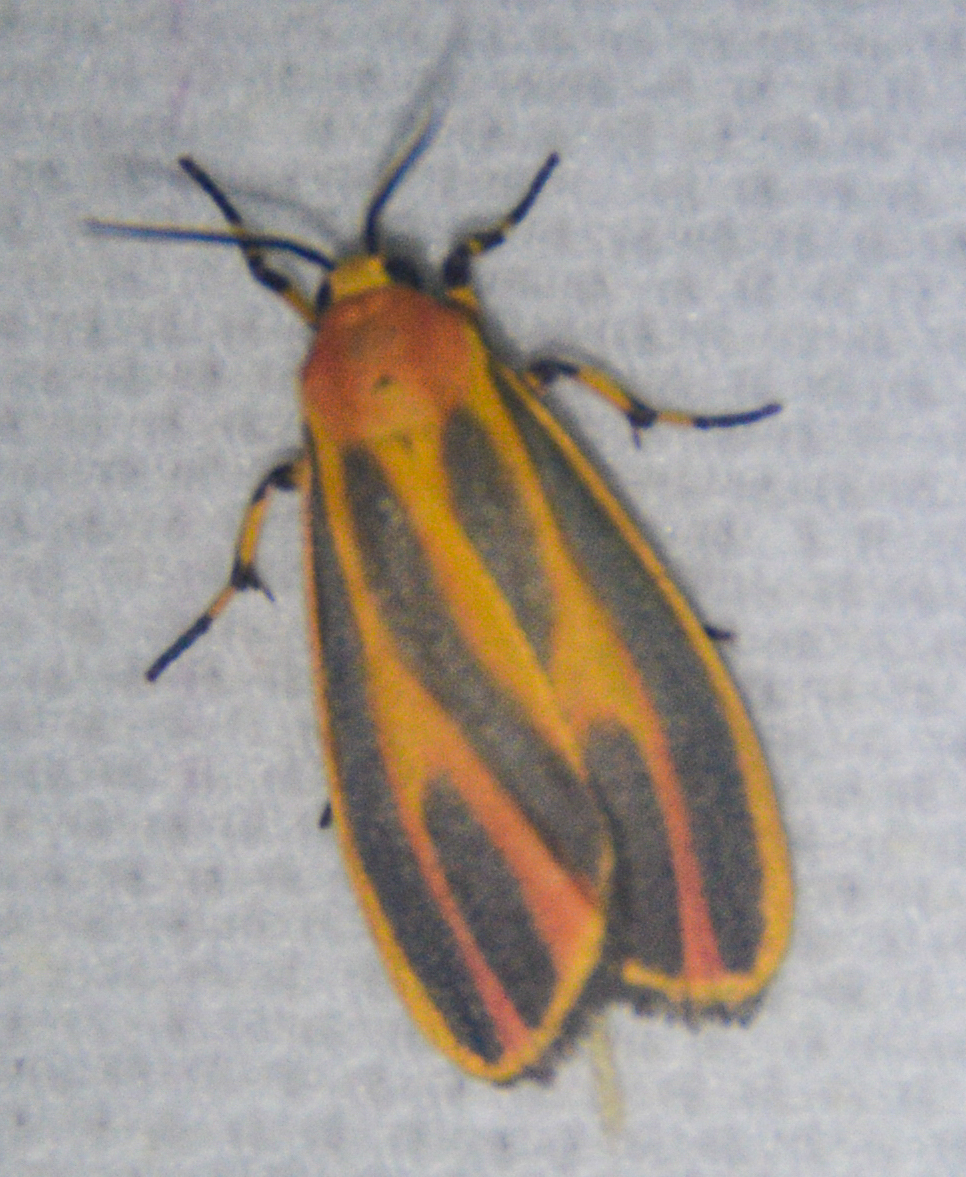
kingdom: Animalia
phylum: Arthropoda
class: Insecta
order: Lepidoptera
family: Erebidae
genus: Hypoprepia
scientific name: Hypoprepia fucosa
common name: Painted lichen moth
